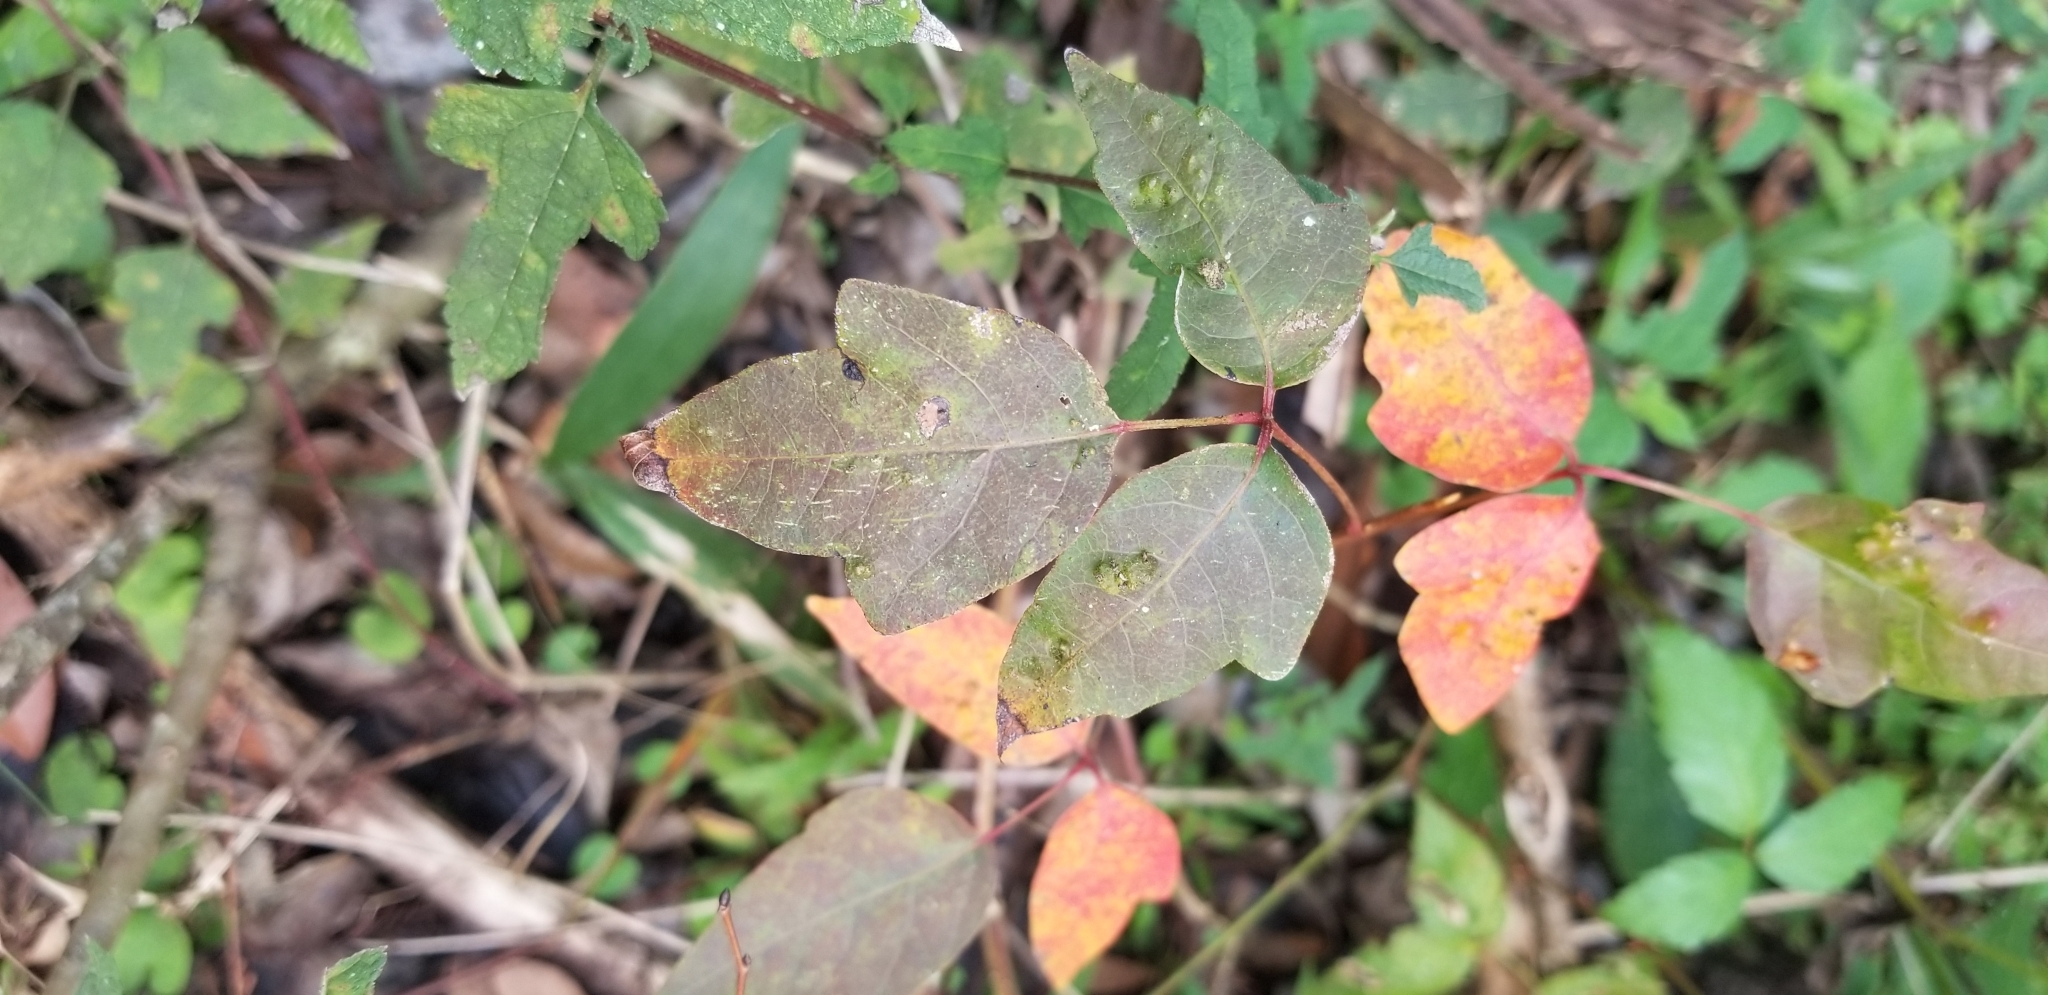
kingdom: Plantae
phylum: Tracheophyta
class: Magnoliopsida
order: Sapindales
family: Anacardiaceae
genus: Toxicodendron
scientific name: Toxicodendron radicans
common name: Poison ivy
